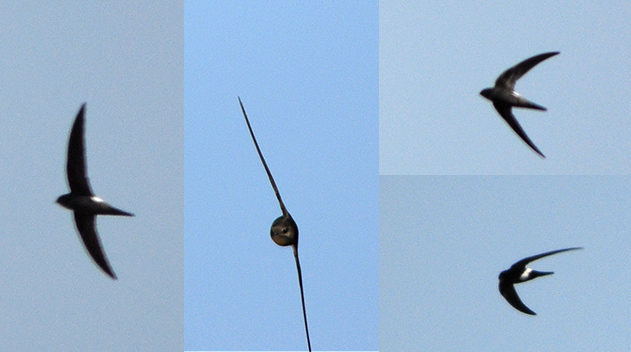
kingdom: Animalia
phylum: Chordata
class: Aves
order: Apodiformes
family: Apodidae
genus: Apus
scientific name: Apus pacificus
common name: Pacific swift
